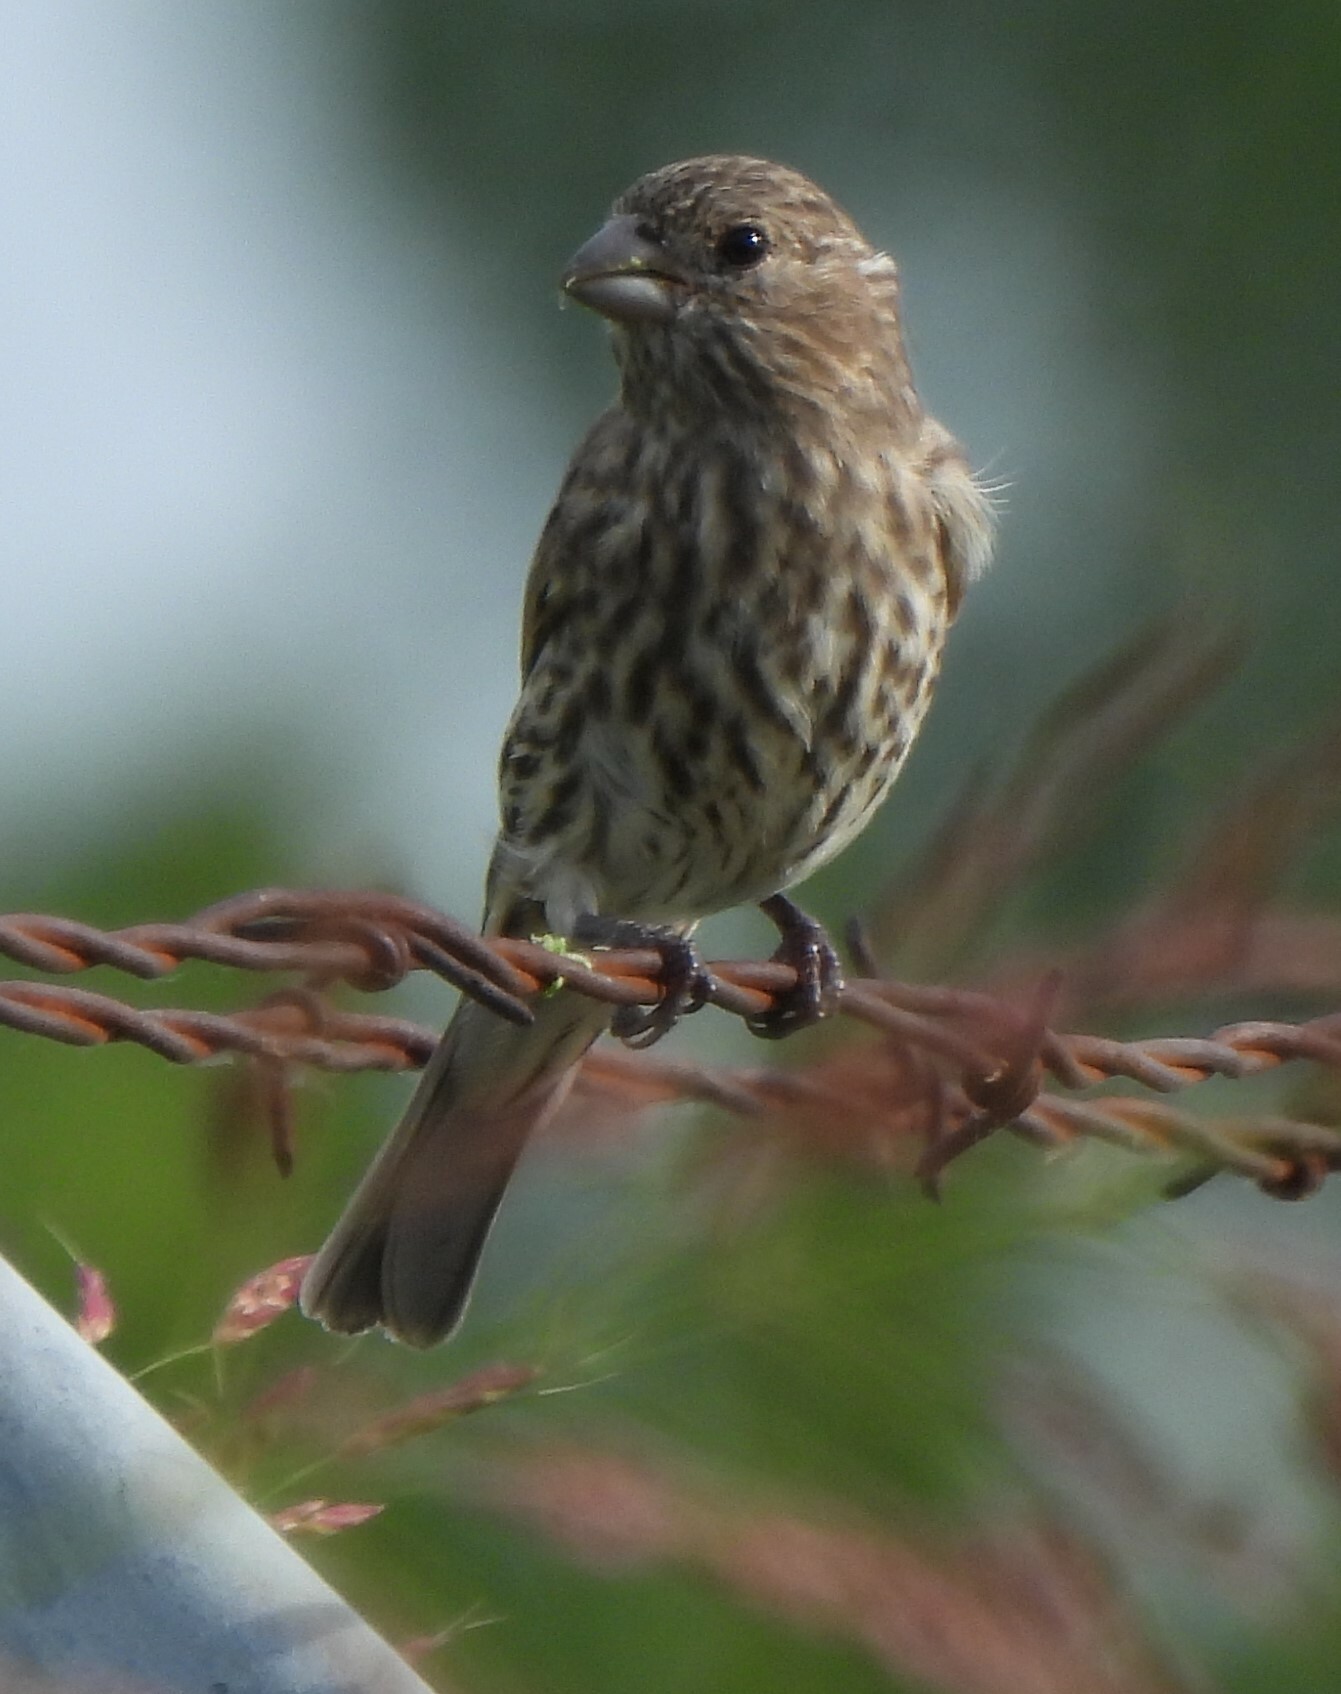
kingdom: Animalia
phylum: Chordata
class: Aves
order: Passeriformes
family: Fringillidae
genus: Haemorhous
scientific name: Haemorhous mexicanus
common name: House finch
